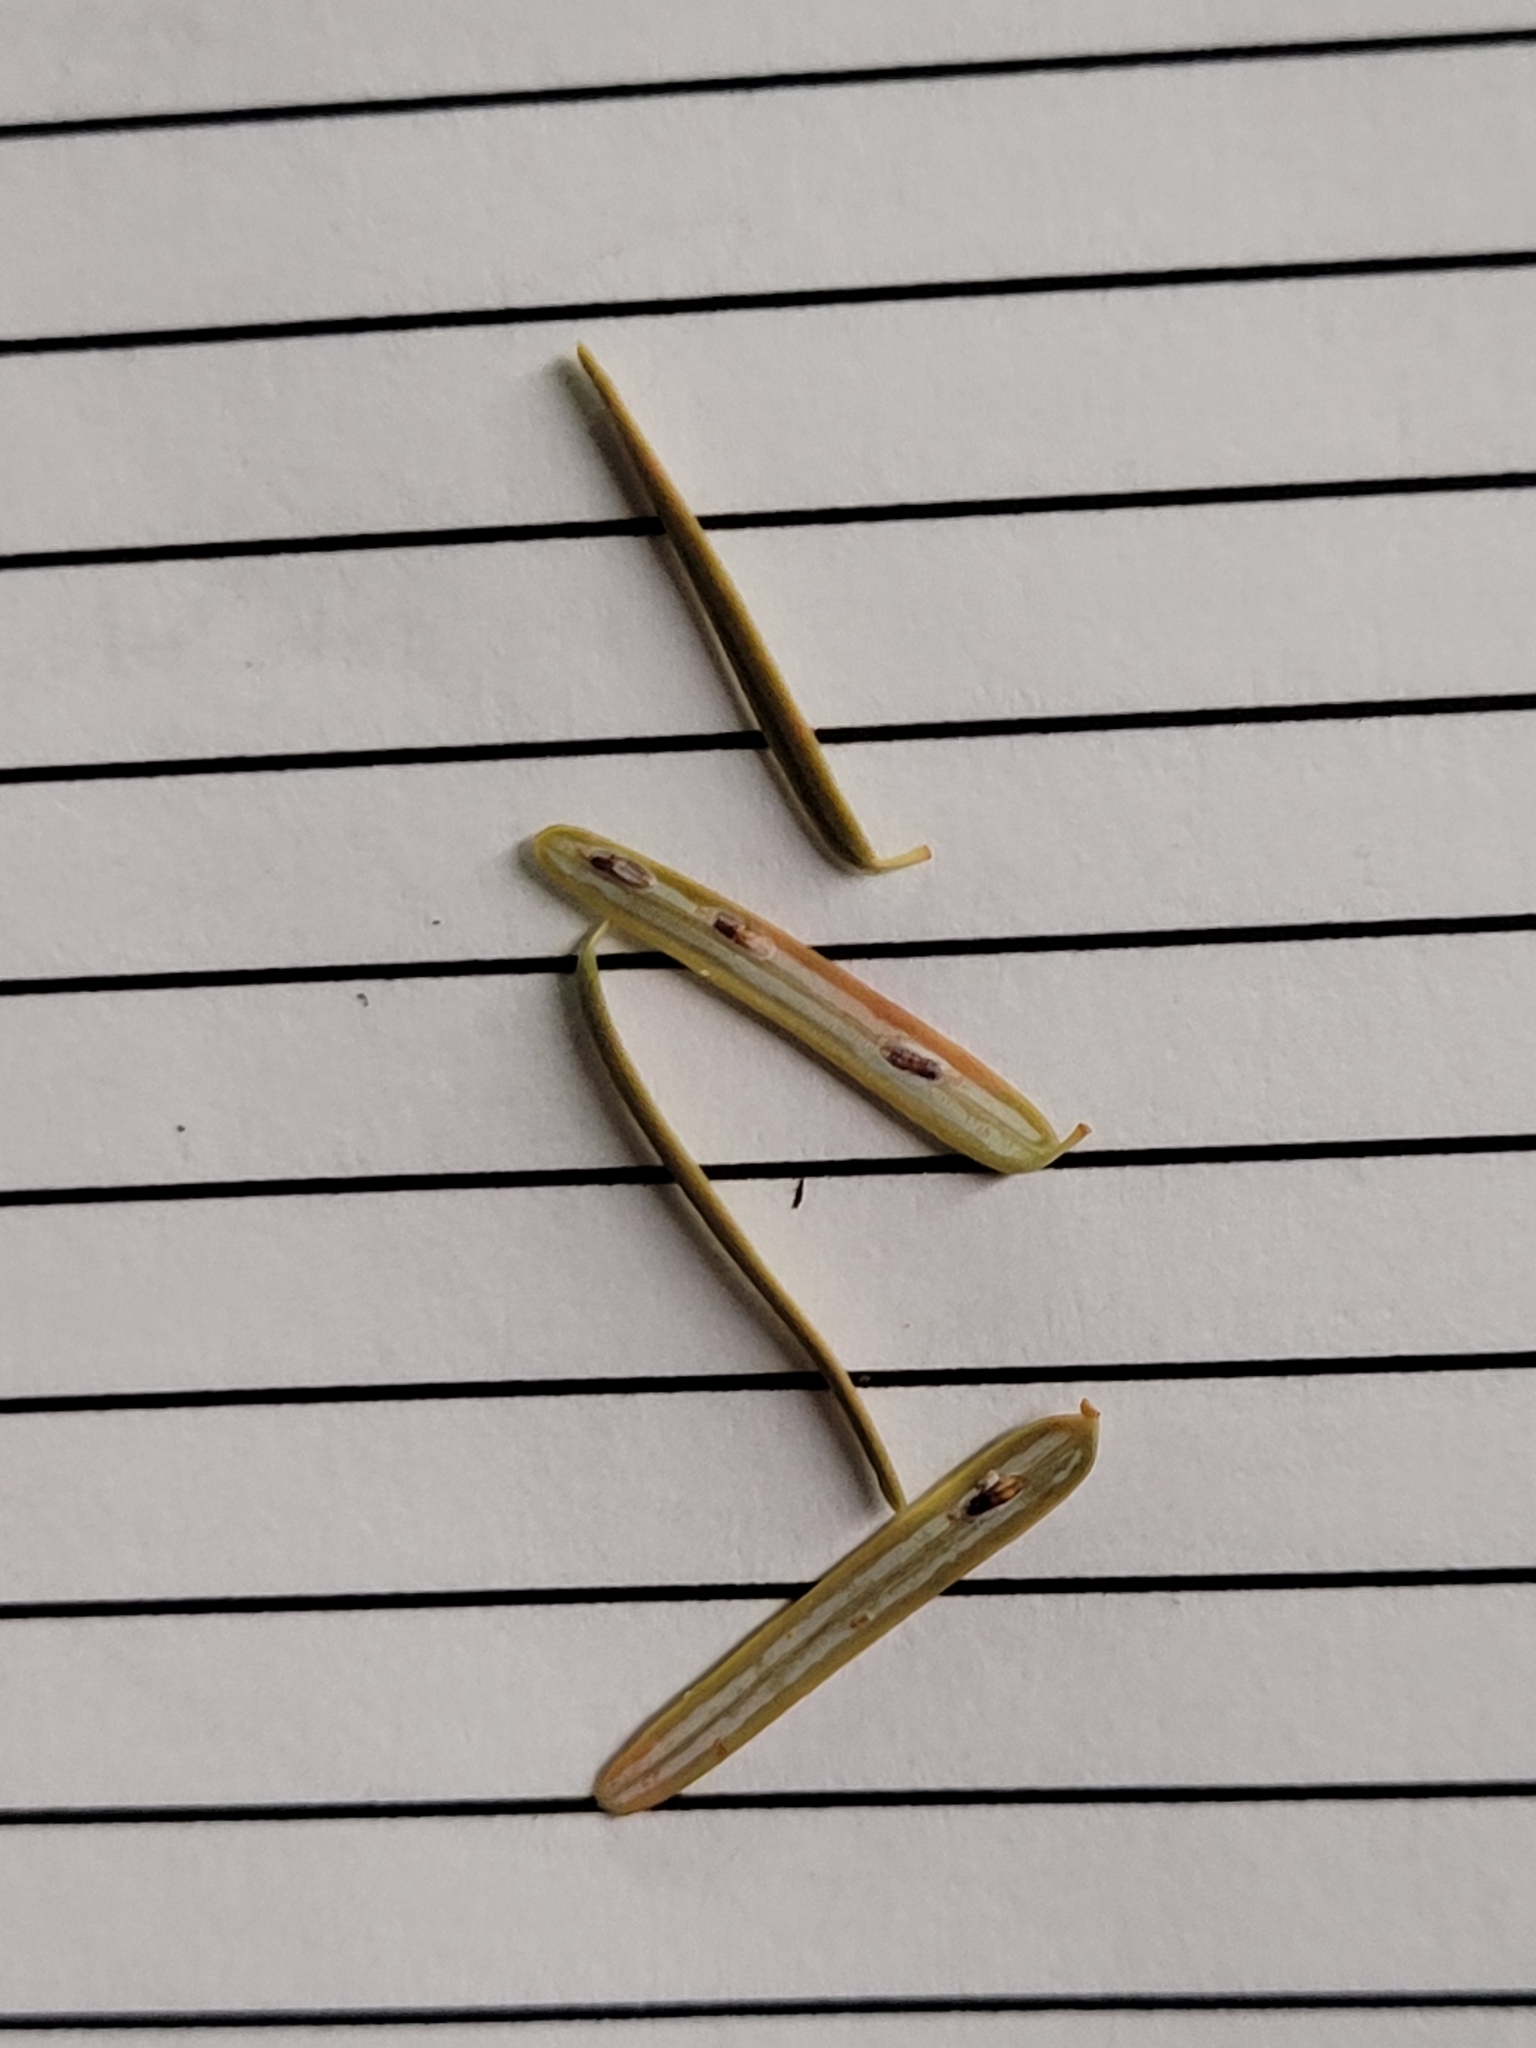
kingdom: Animalia
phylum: Arthropoda
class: Insecta
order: Hemiptera
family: Diaspididae
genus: Fiorinia
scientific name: Fiorinia externa
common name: Elongate hemlock scale
